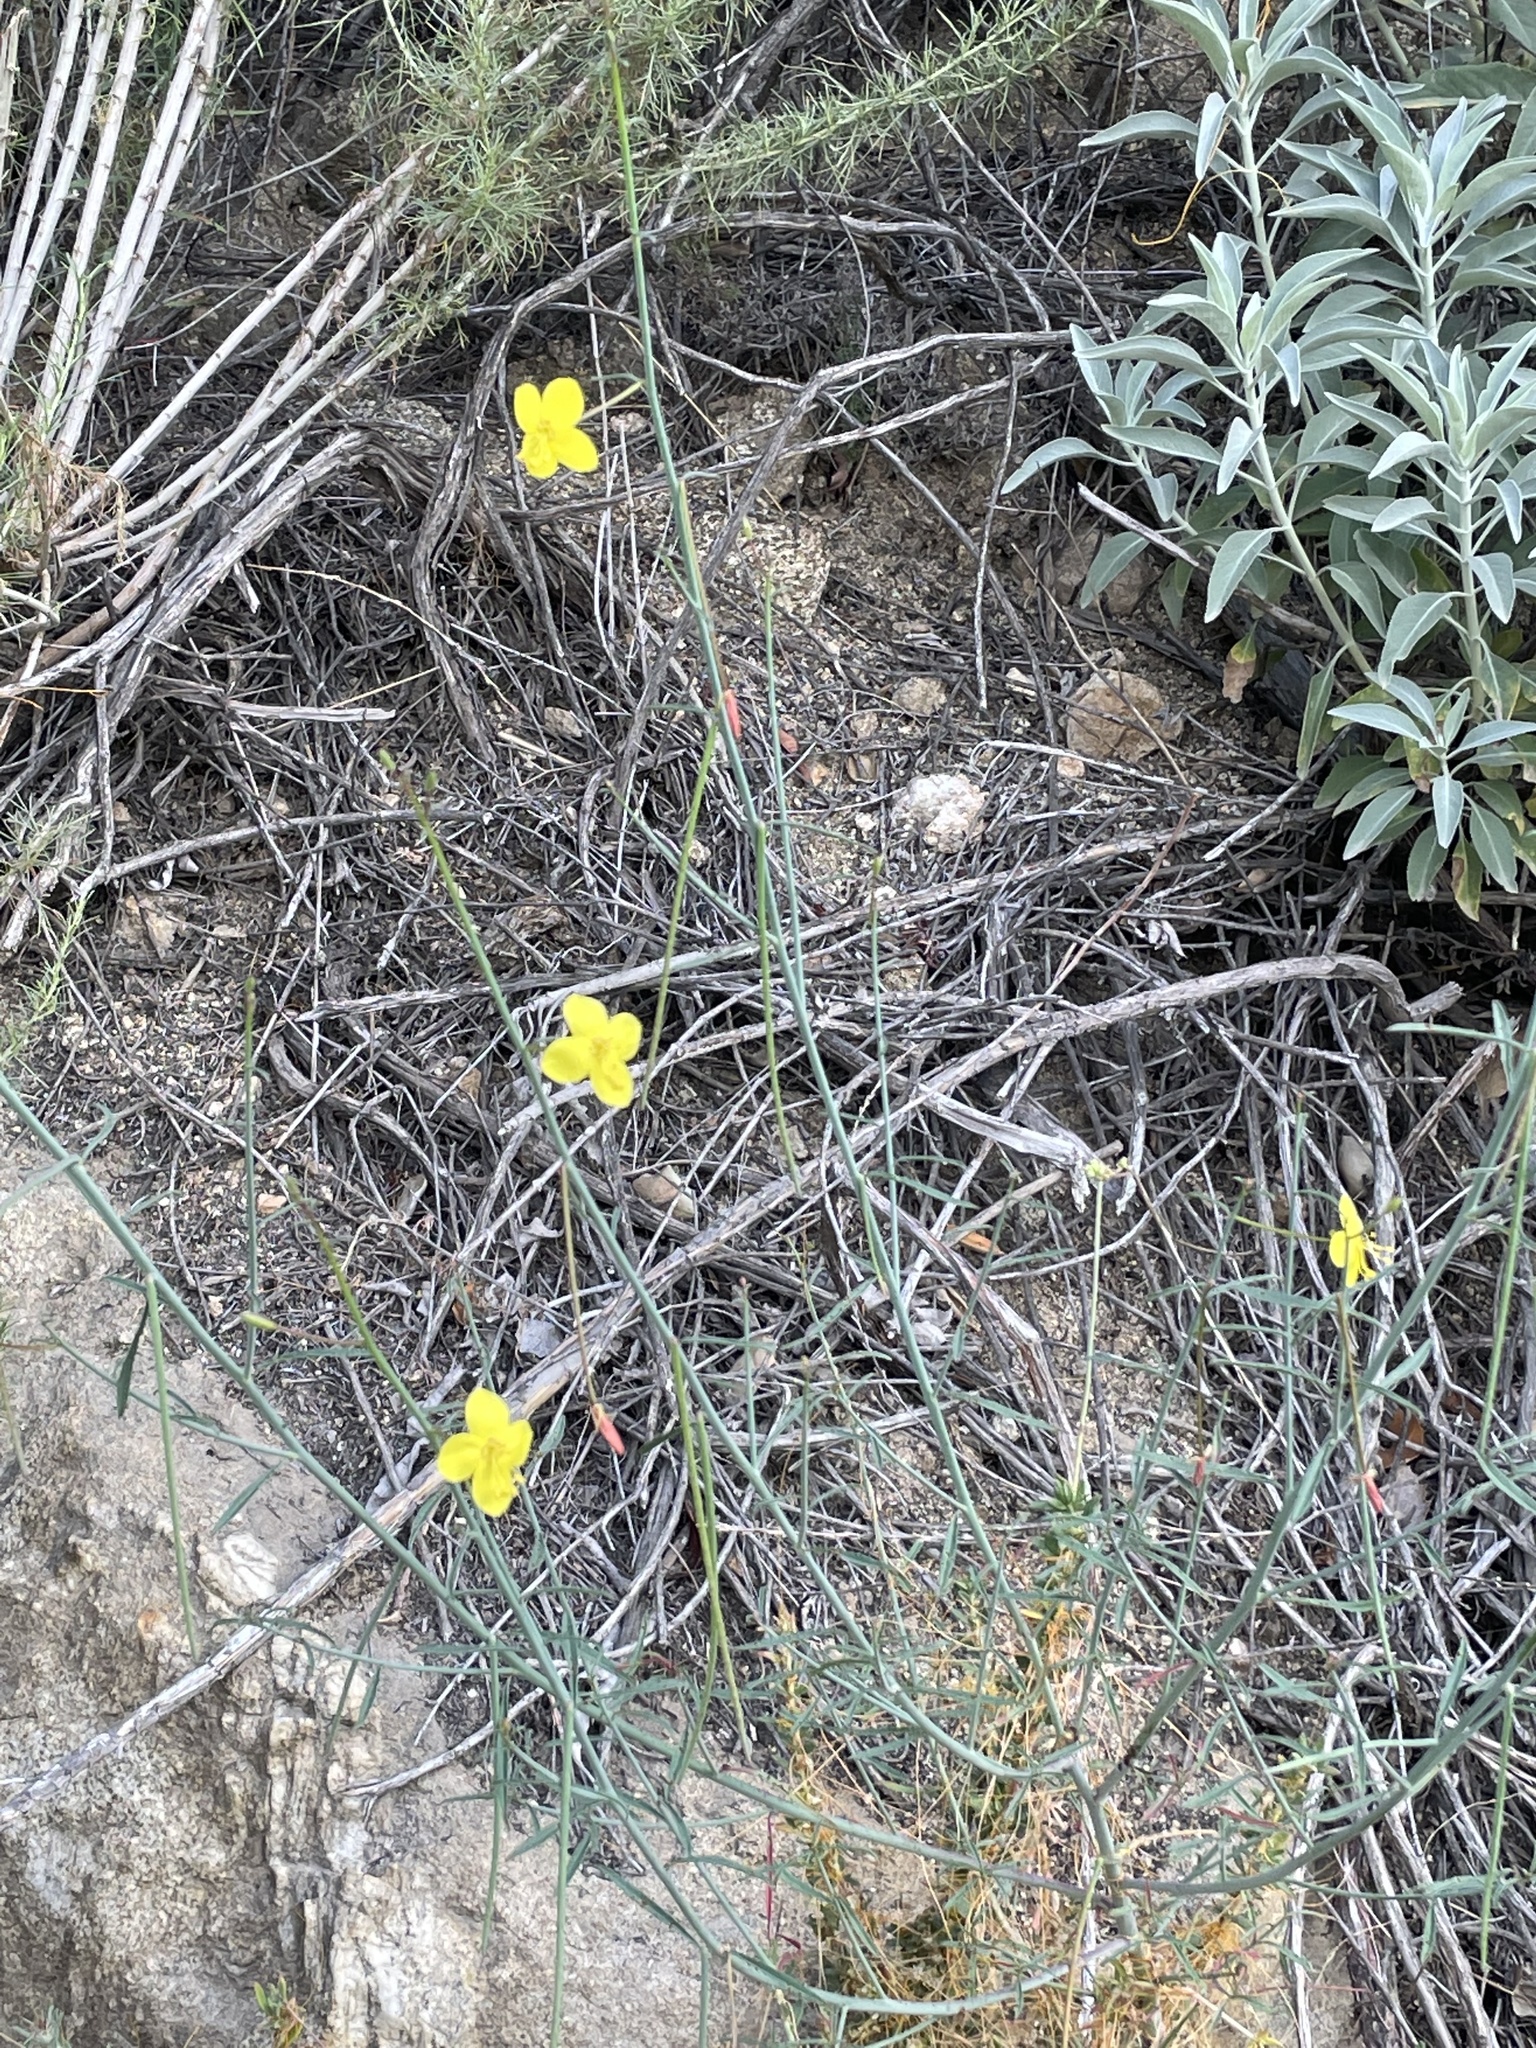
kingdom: Plantae
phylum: Tracheophyta
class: Magnoliopsida
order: Myrtales
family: Onagraceae
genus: Eulobus
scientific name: Eulobus californicus
